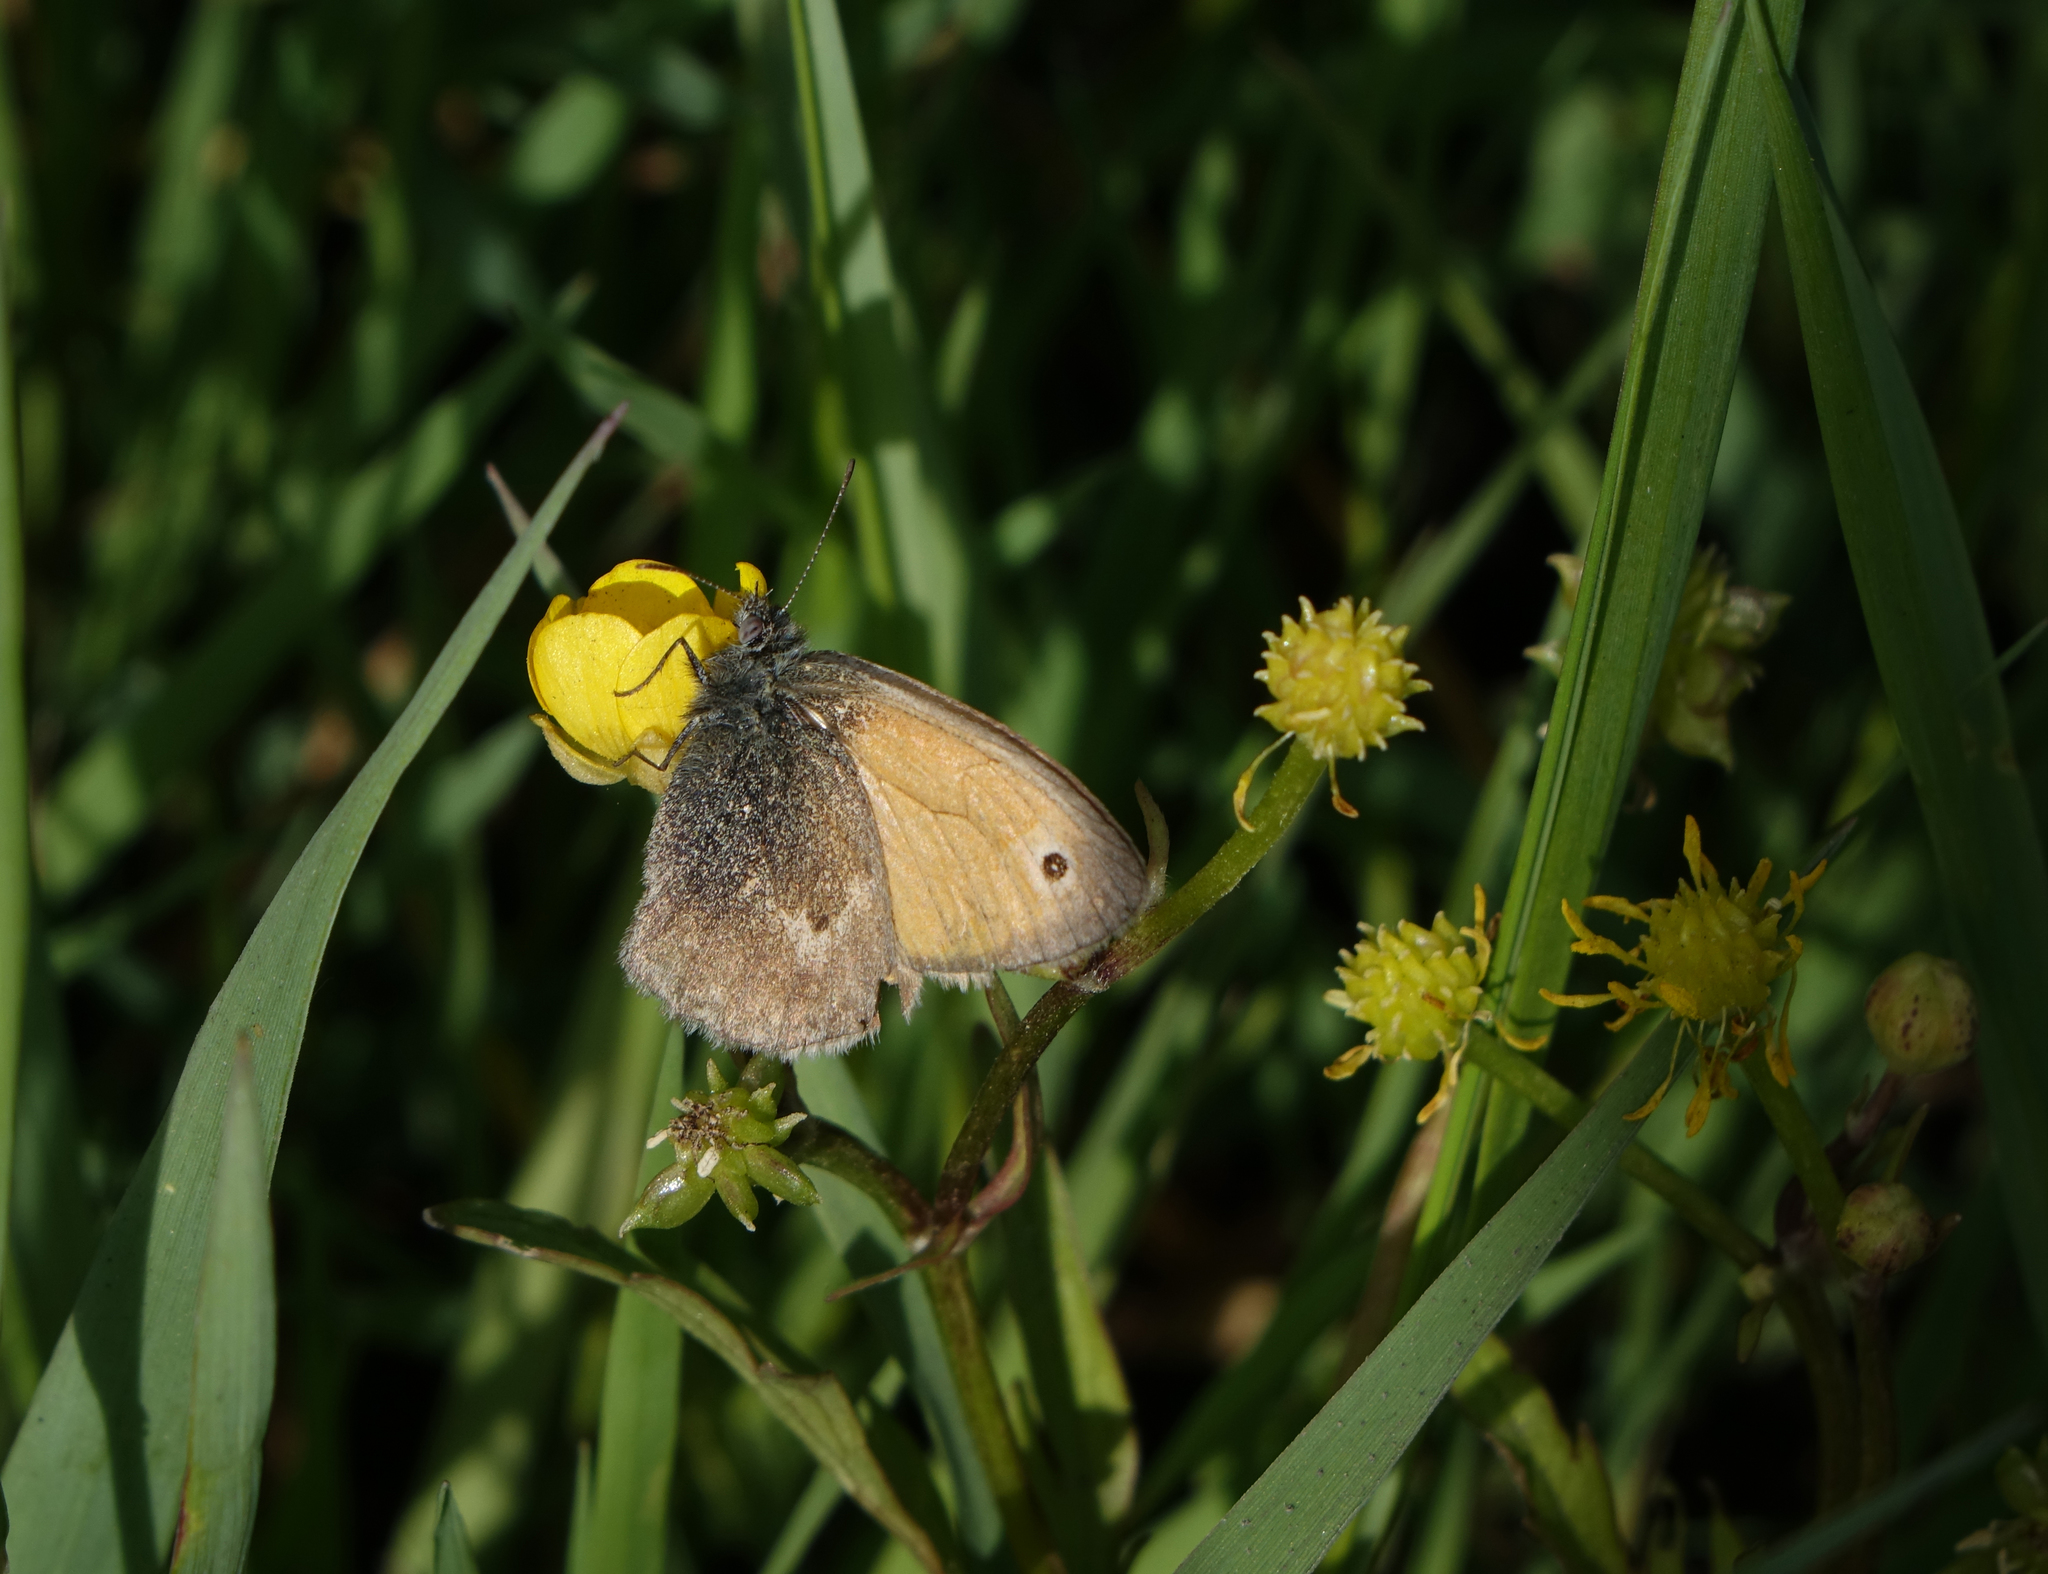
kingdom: Animalia
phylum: Arthropoda
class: Insecta
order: Lepidoptera
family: Nymphalidae
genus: Coenonympha
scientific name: Coenonympha pamphilus
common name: Small heath
